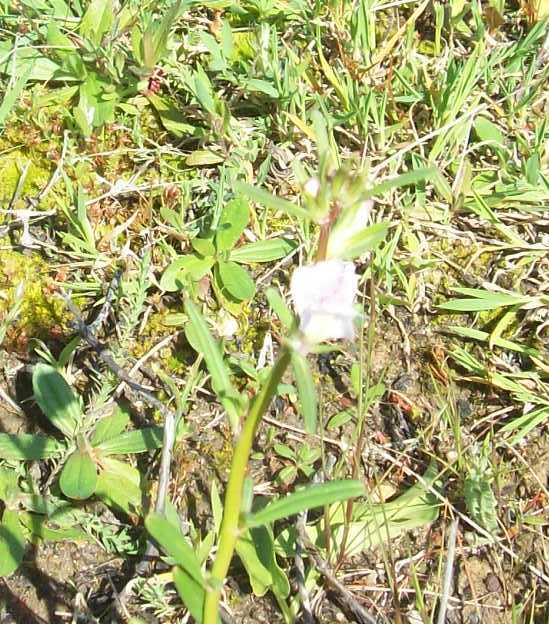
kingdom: Plantae
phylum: Tracheophyta
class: Liliopsida
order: Asparagales
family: Orchidaceae
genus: Serapias
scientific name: Serapias lingua
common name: Tongue-orchid
